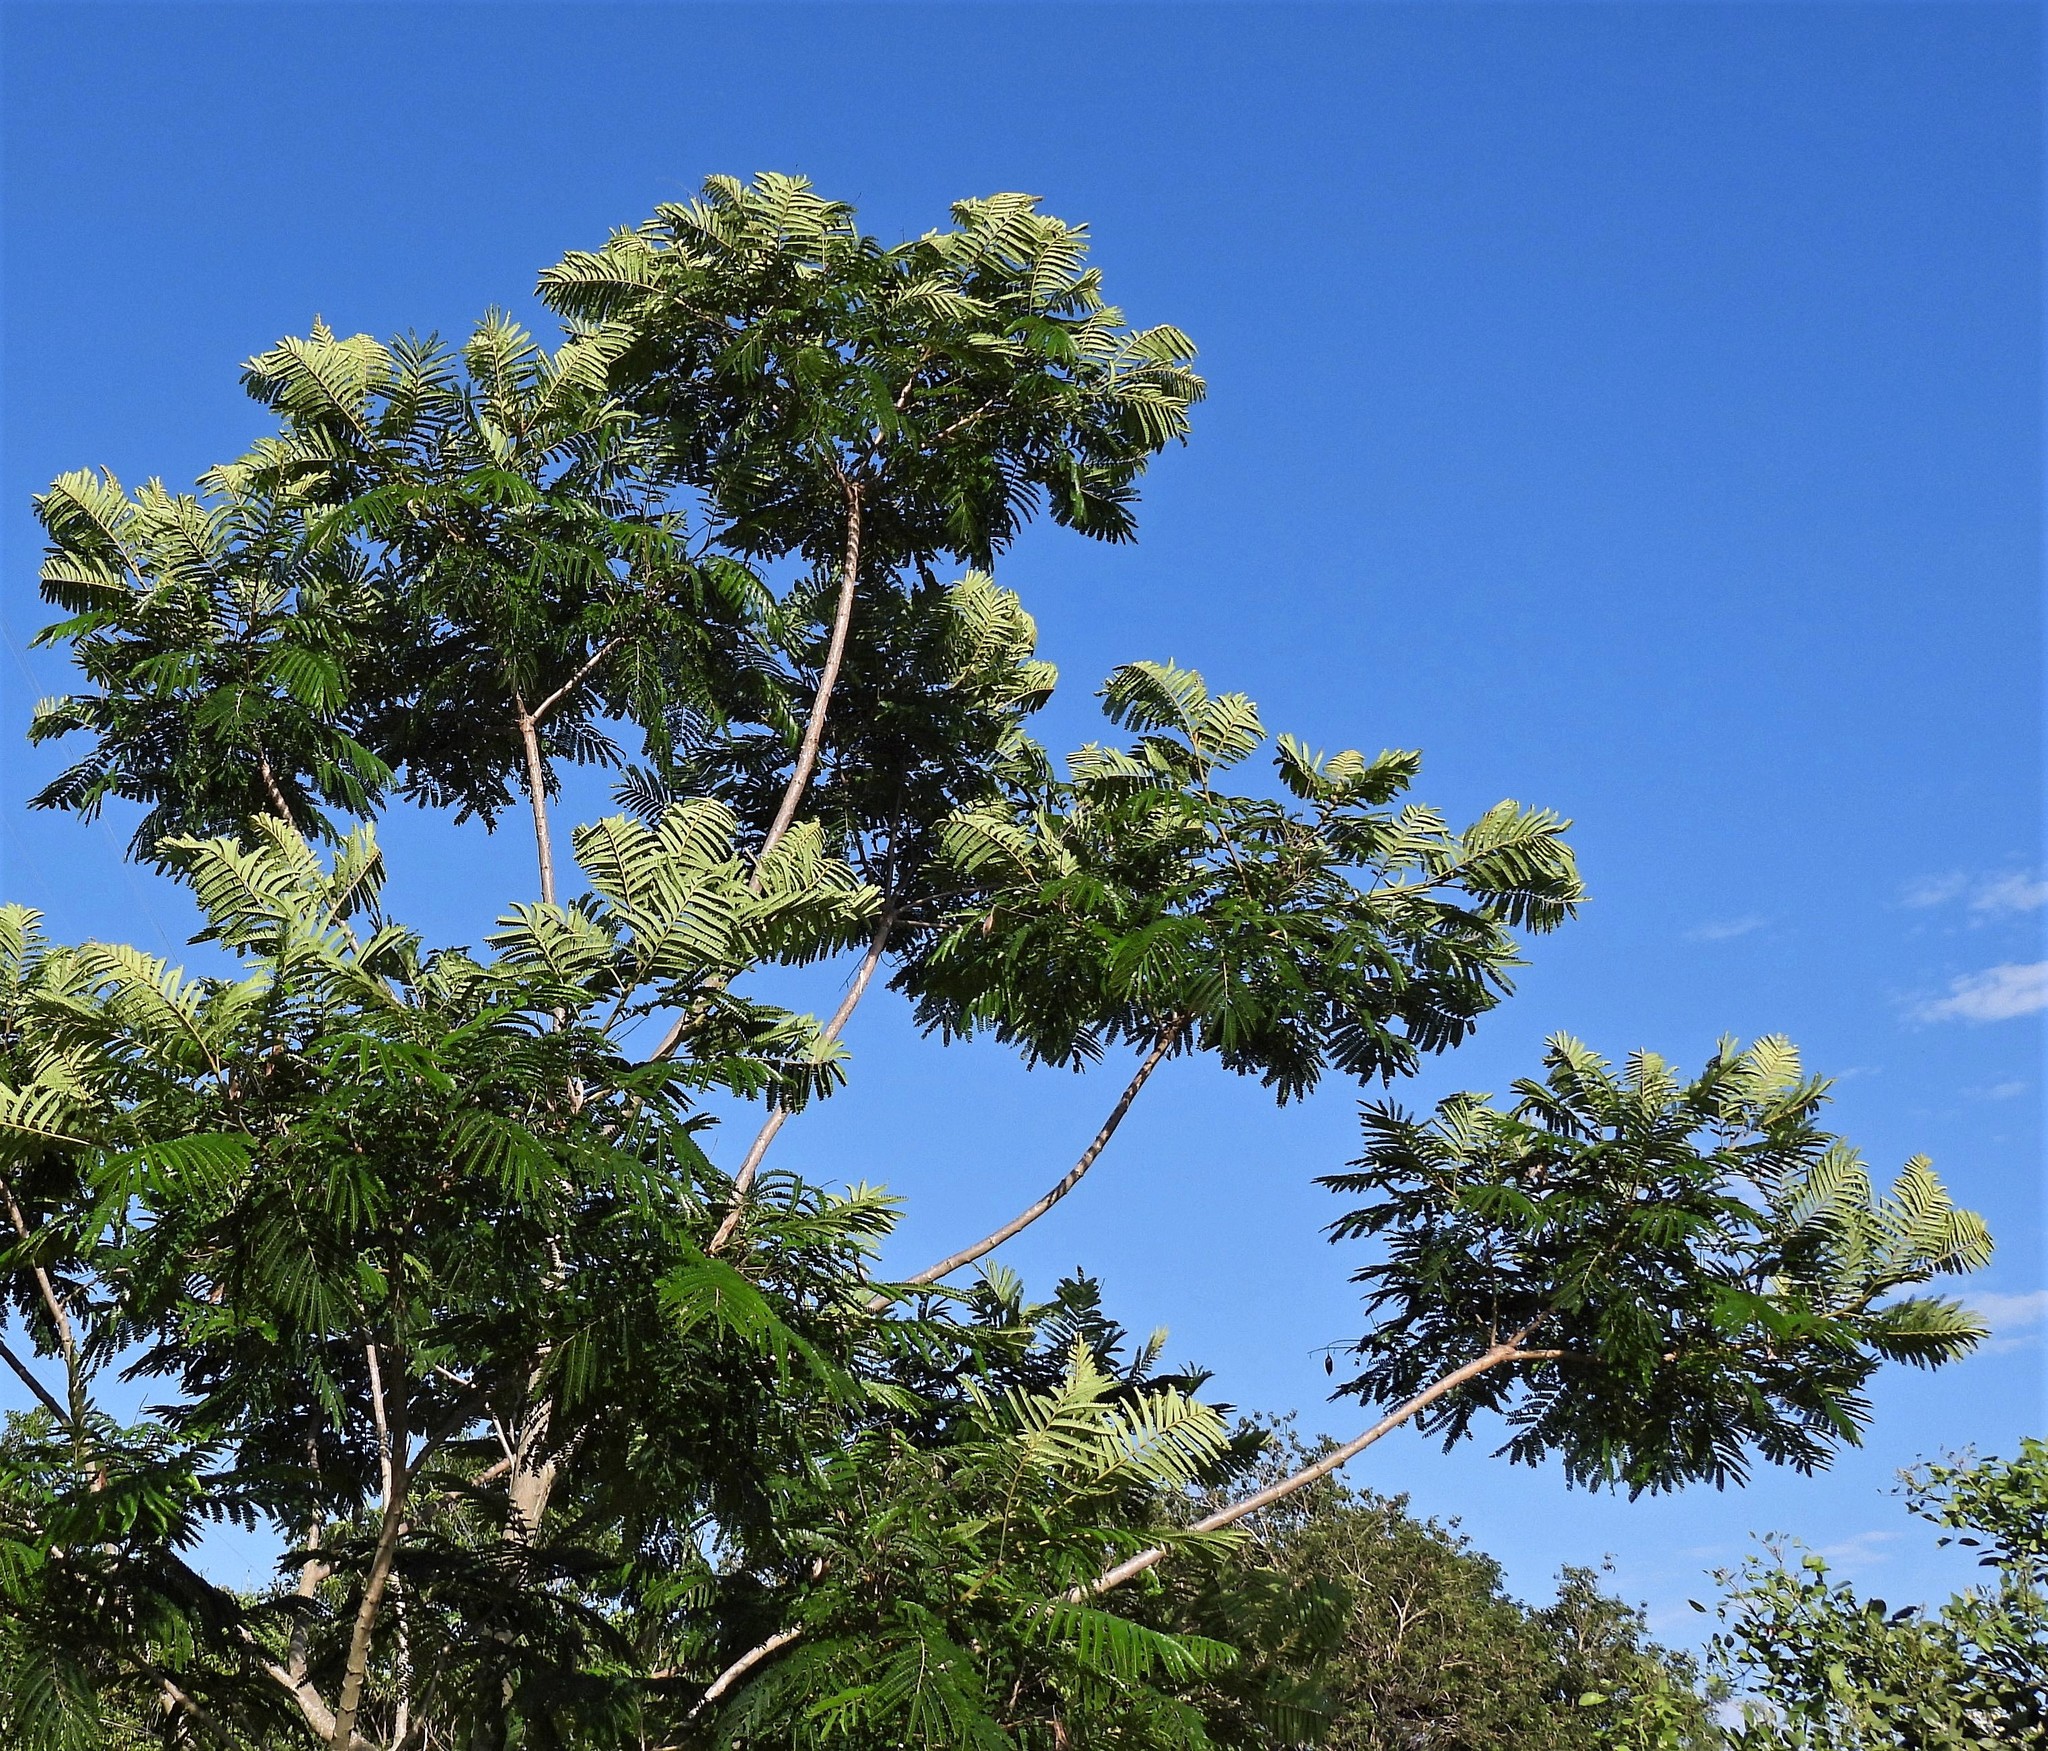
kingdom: Plantae
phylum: Tracheophyta
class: Magnoliopsida
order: Fabales
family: Fabaceae
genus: Peltophorum
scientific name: Peltophorum dubium
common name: Horsebush
